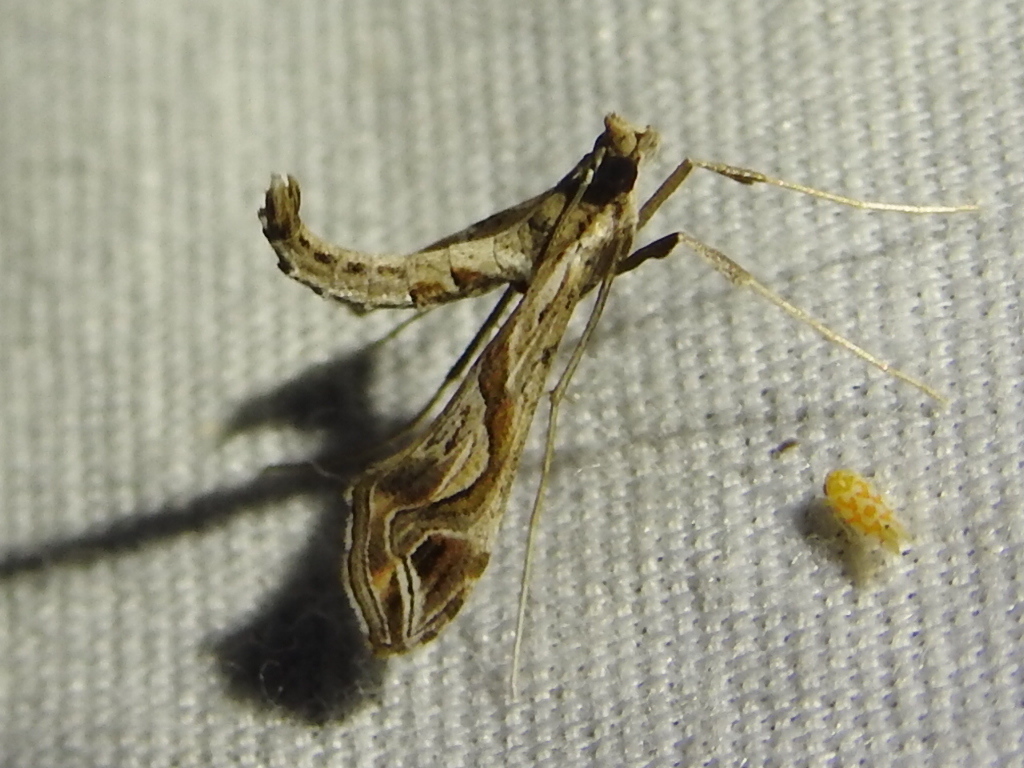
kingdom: Animalia
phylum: Arthropoda
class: Insecta
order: Lepidoptera
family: Crambidae
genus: Lineodes
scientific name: Lineodes integra
